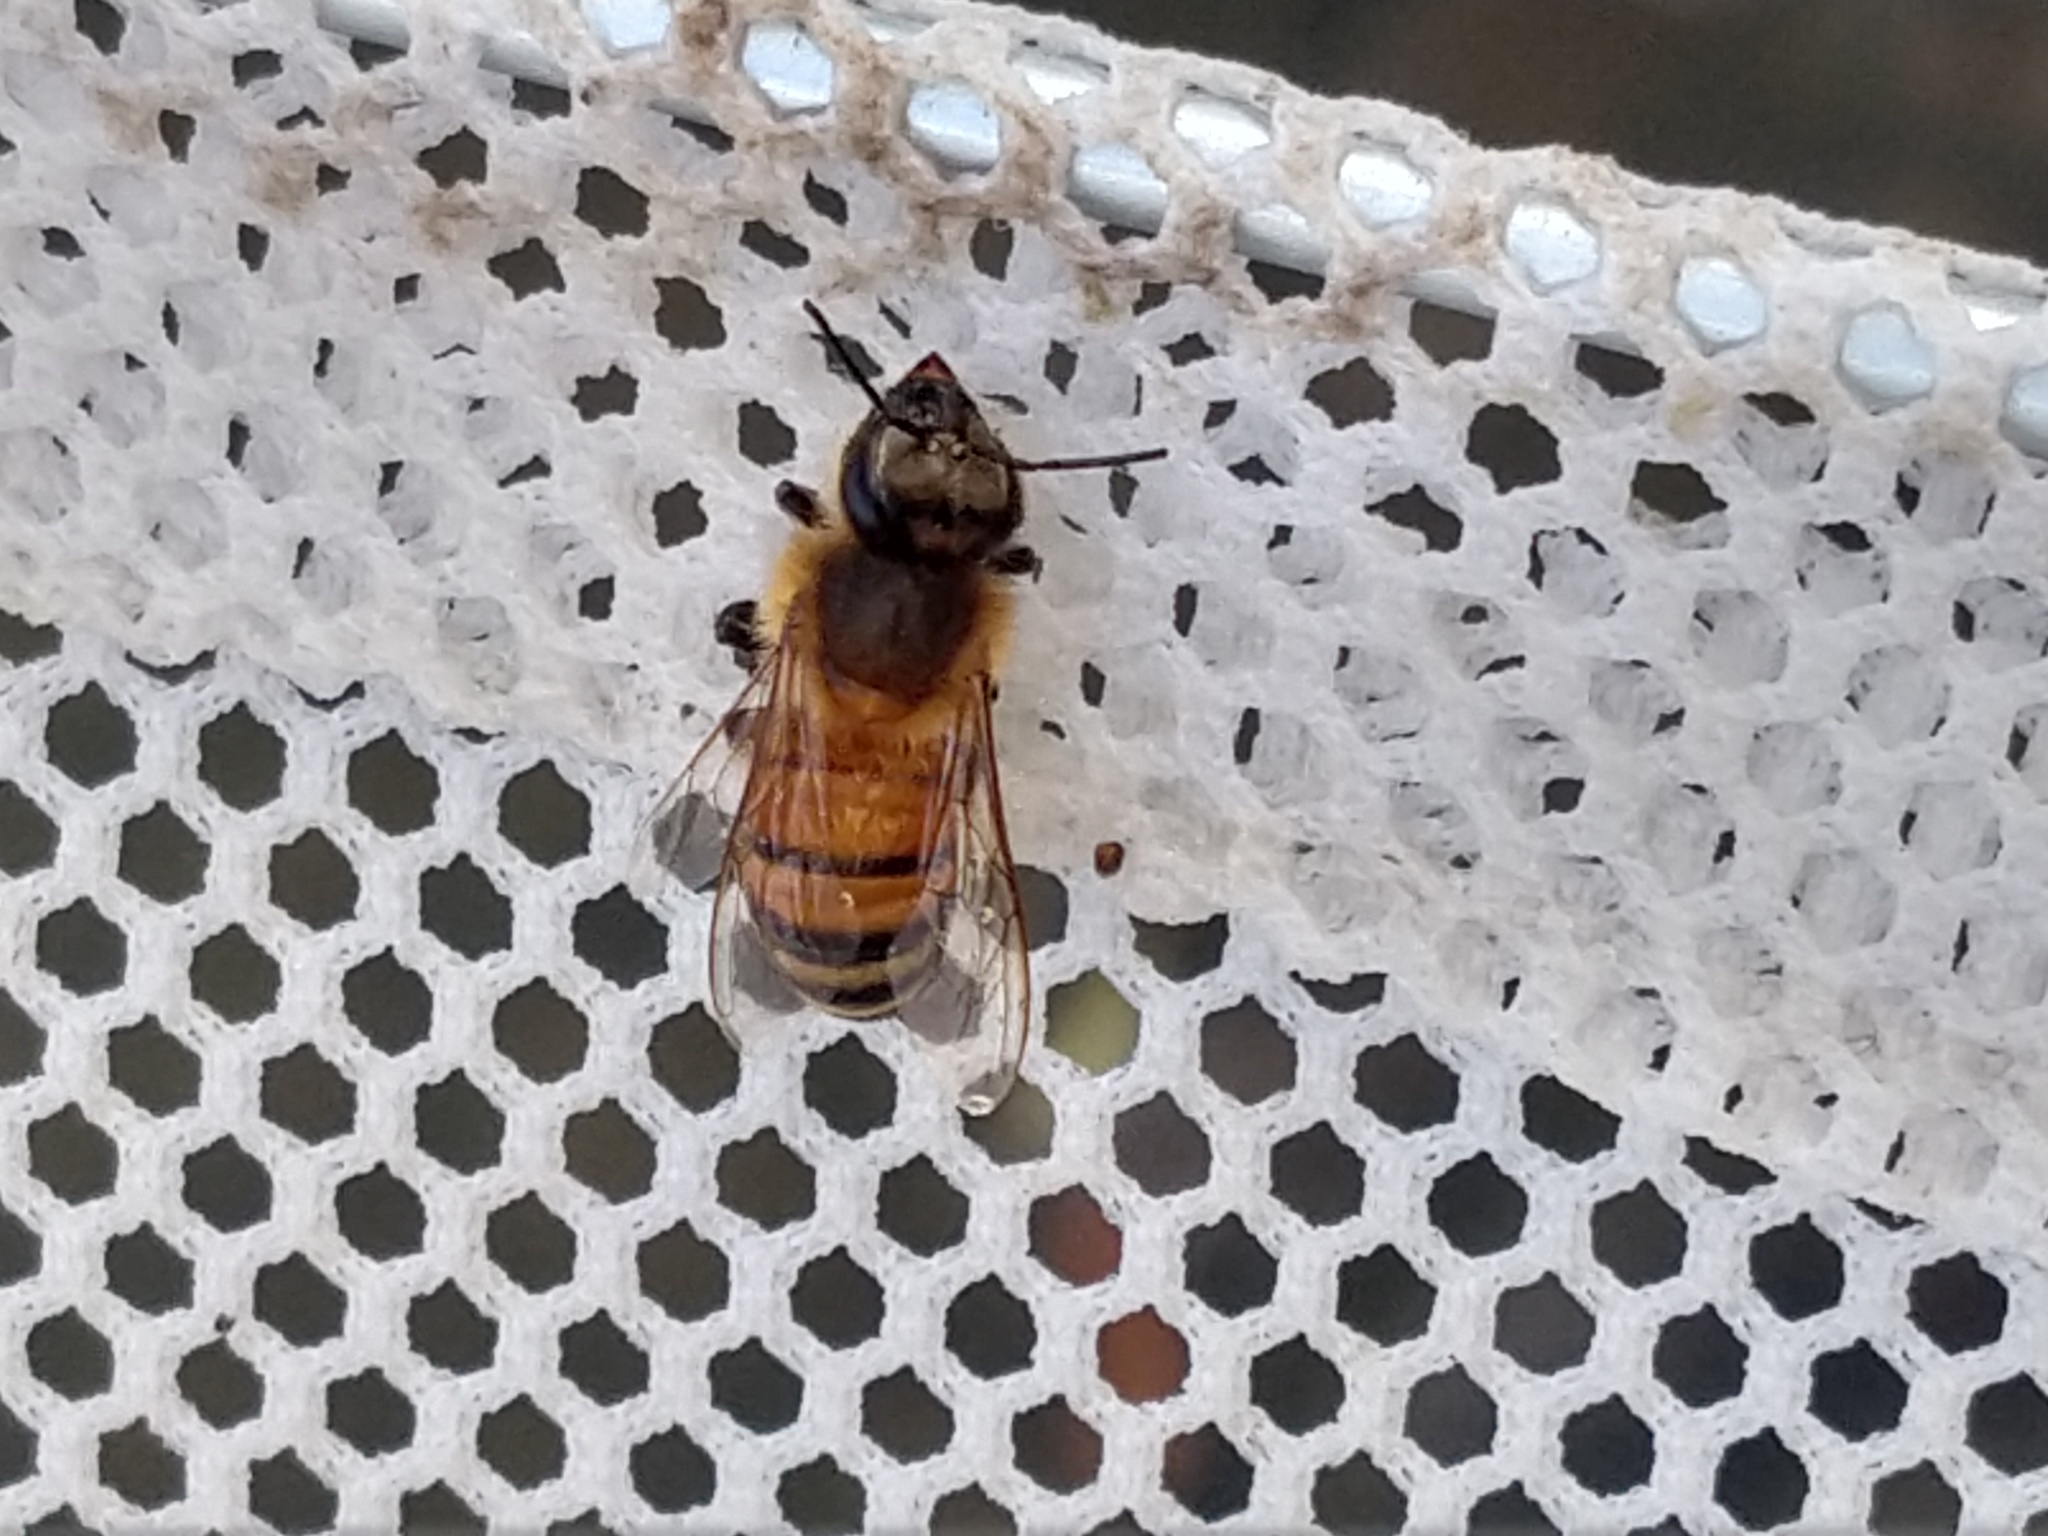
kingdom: Animalia
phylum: Arthropoda
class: Insecta
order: Hymenoptera
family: Apidae
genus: Apis
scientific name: Apis mellifera
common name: Honey bee
